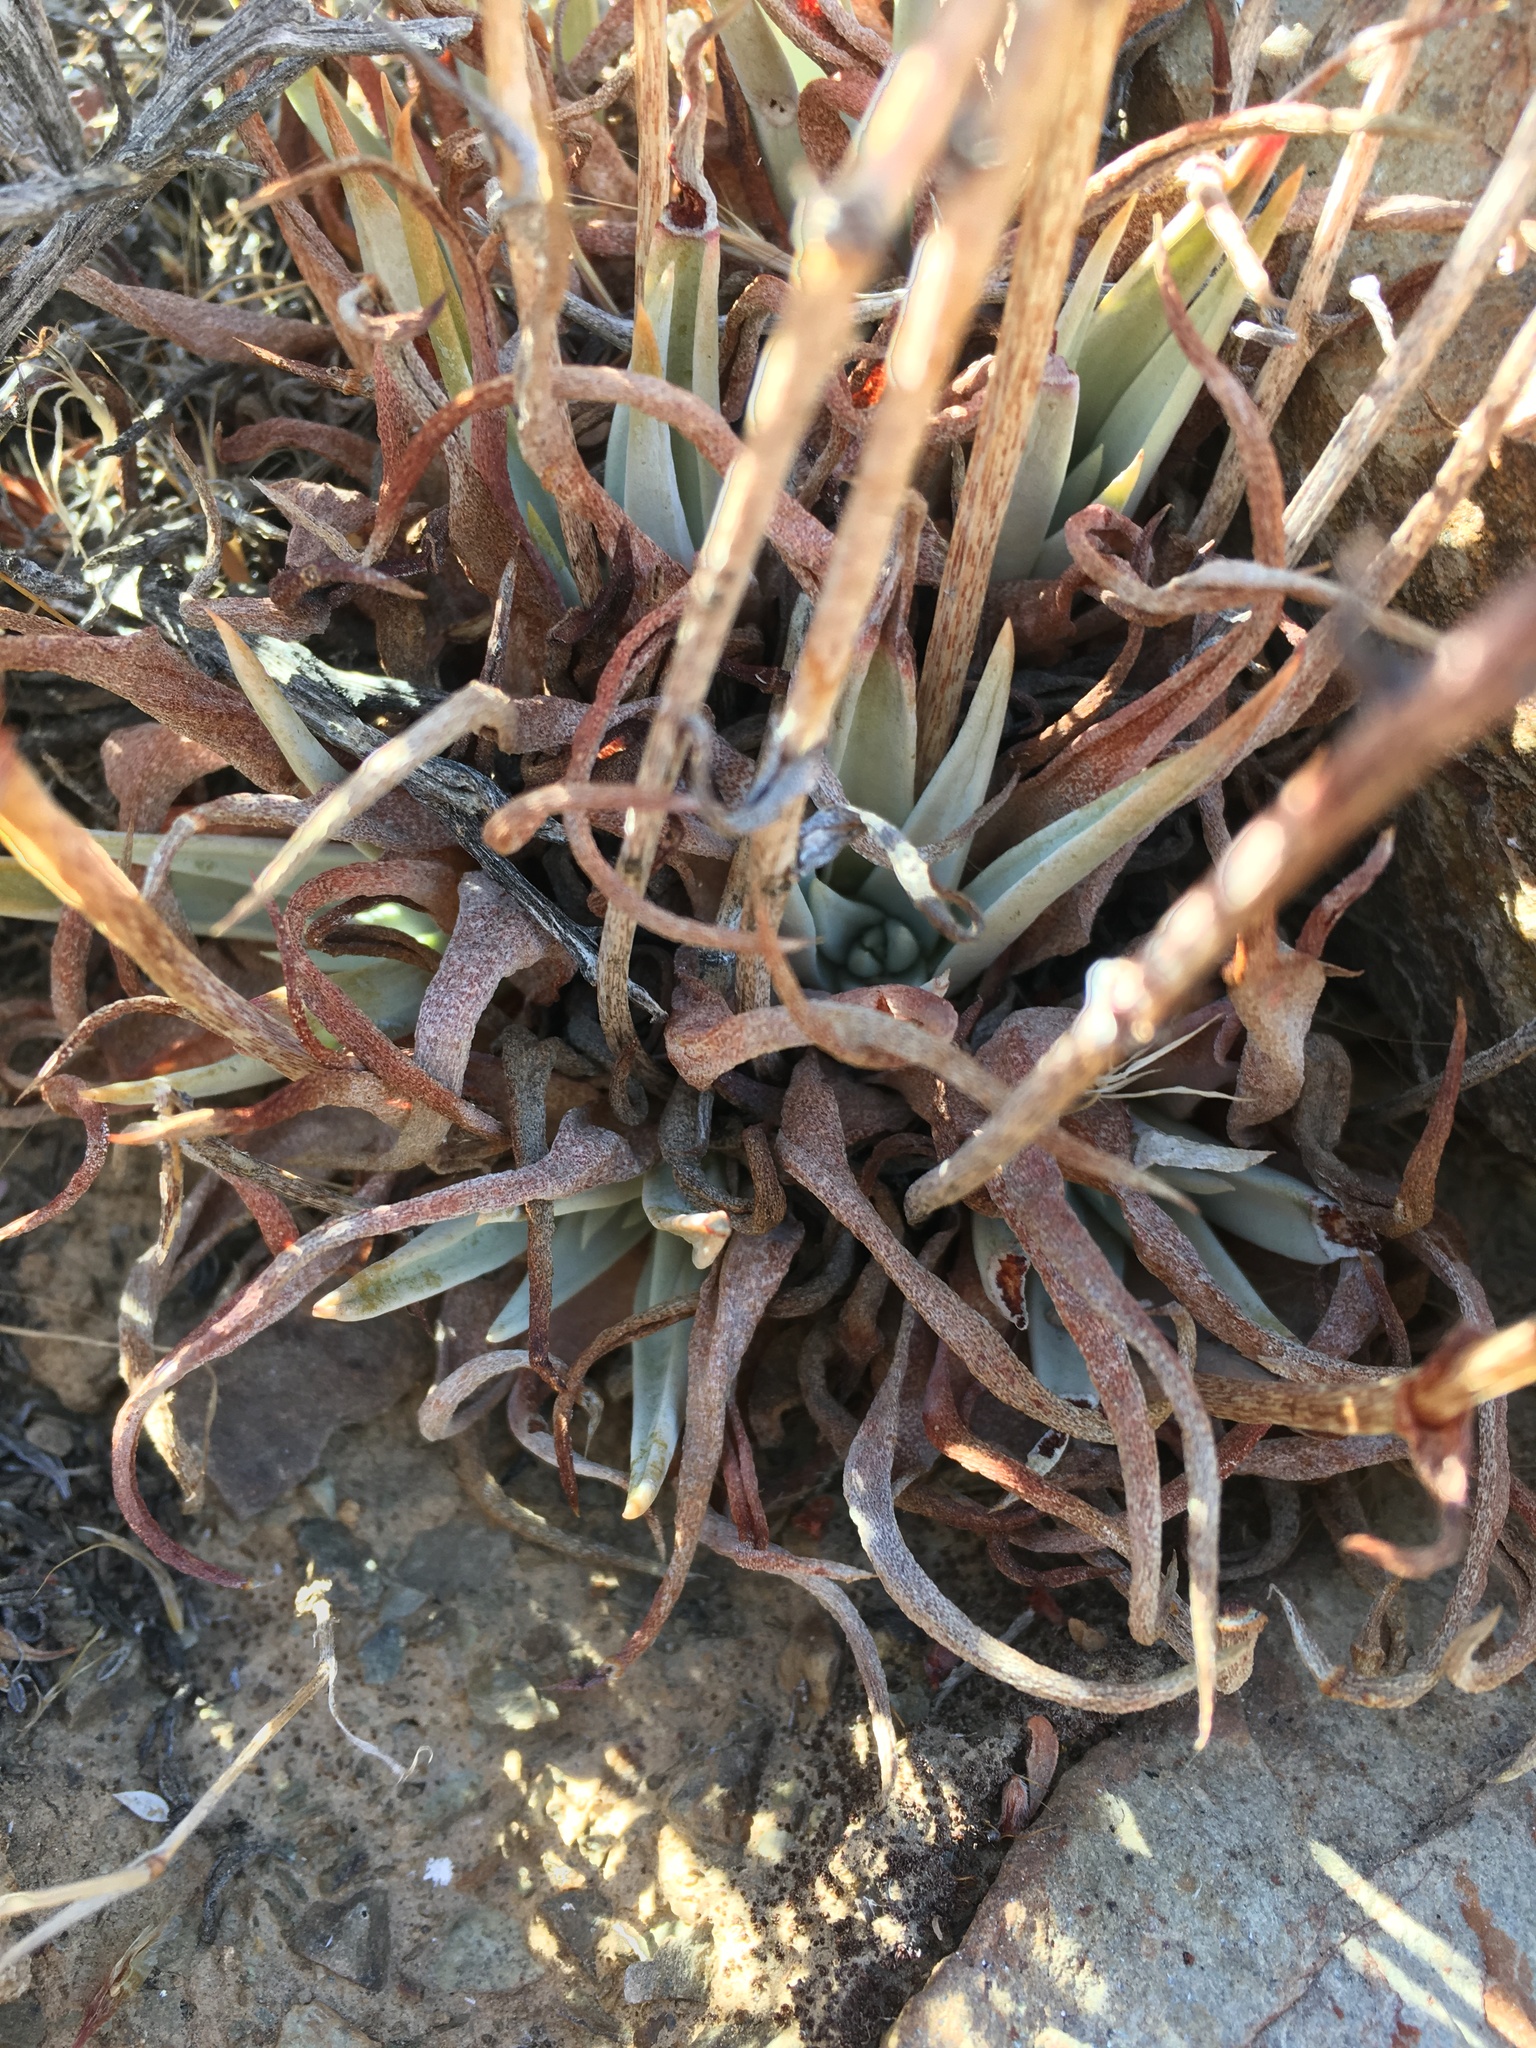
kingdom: Plantae
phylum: Tracheophyta
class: Magnoliopsida
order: Saxifragales
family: Crassulaceae
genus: Dudleya
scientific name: Dudleya saxosa
